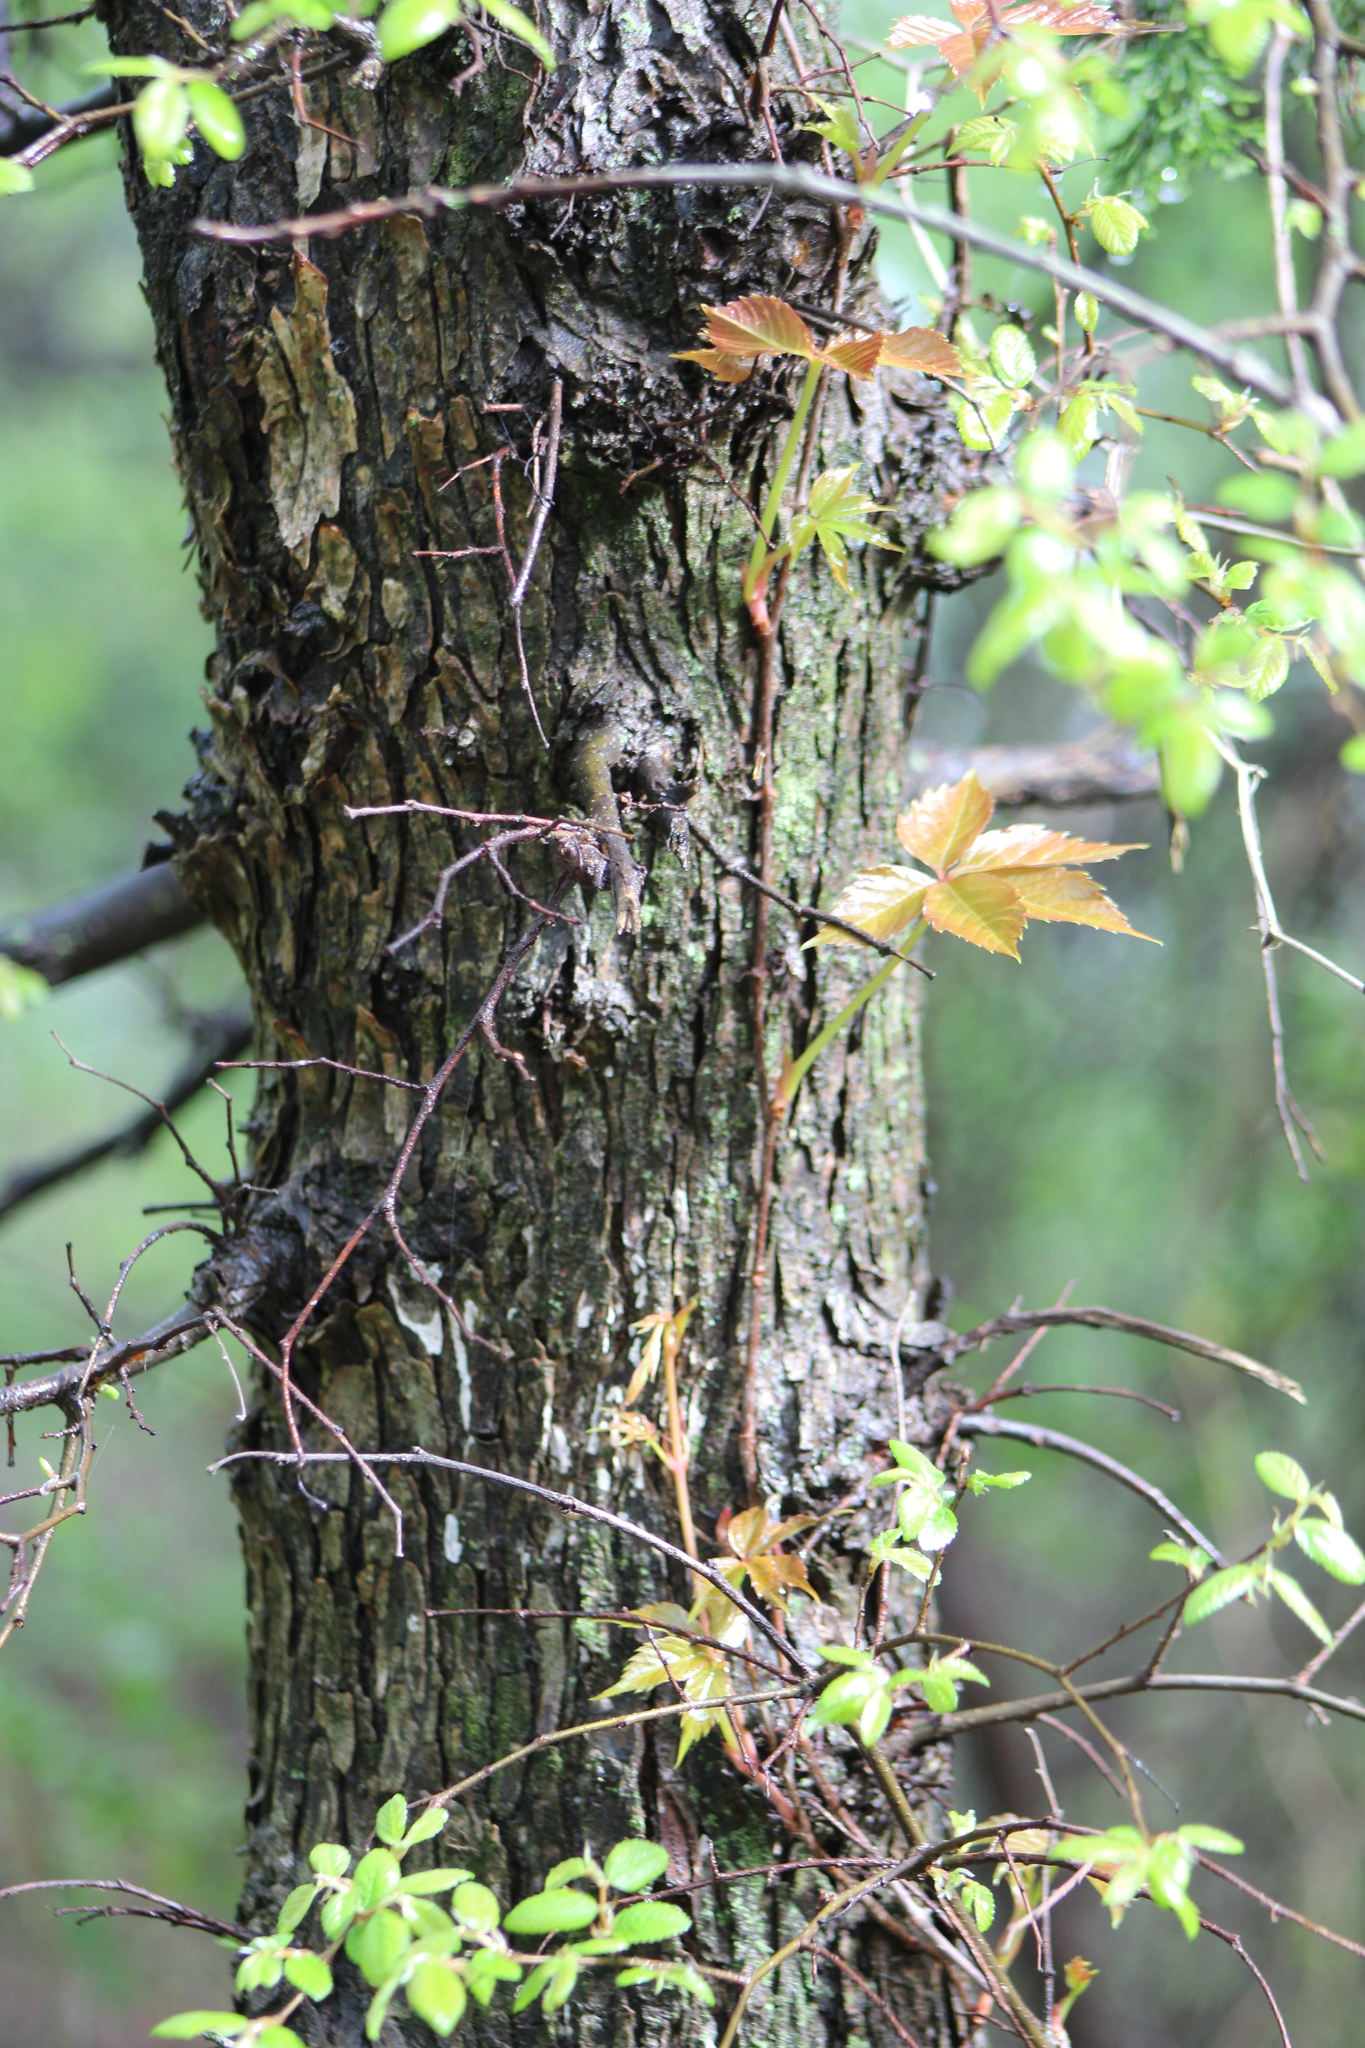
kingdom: Plantae
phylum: Tracheophyta
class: Magnoliopsida
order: Vitales
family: Vitaceae
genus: Parthenocissus
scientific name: Parthenocissus quinquefolia
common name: Virginia-creeper
